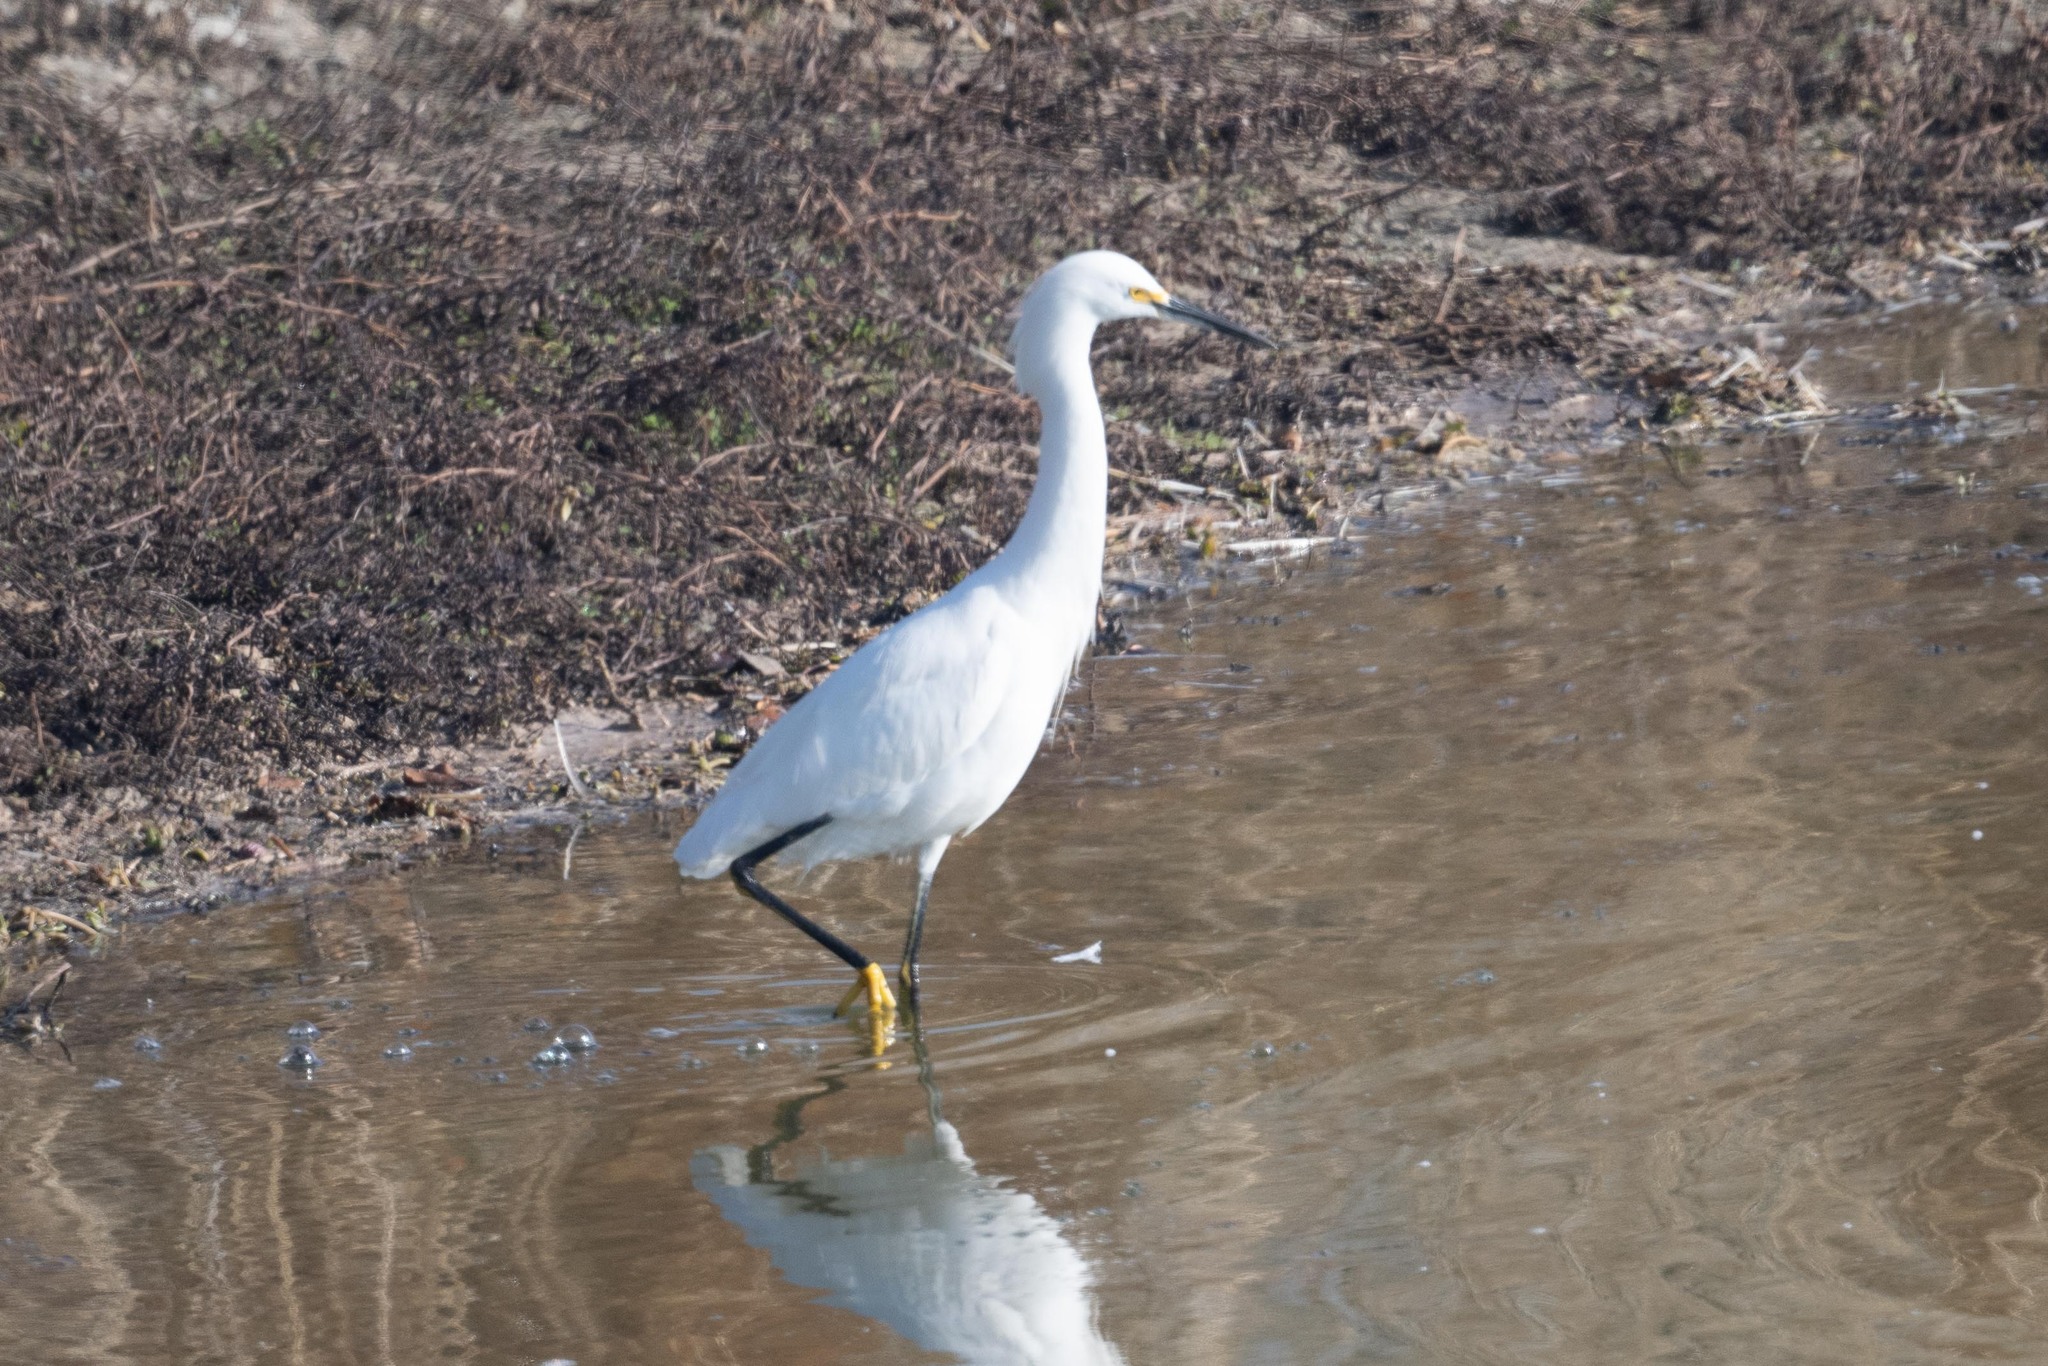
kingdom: Animalia
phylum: Chordata
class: Aves
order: Pelecaniformes
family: Ardeidae
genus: Egretta
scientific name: Egretta thula
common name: Snowy egret
